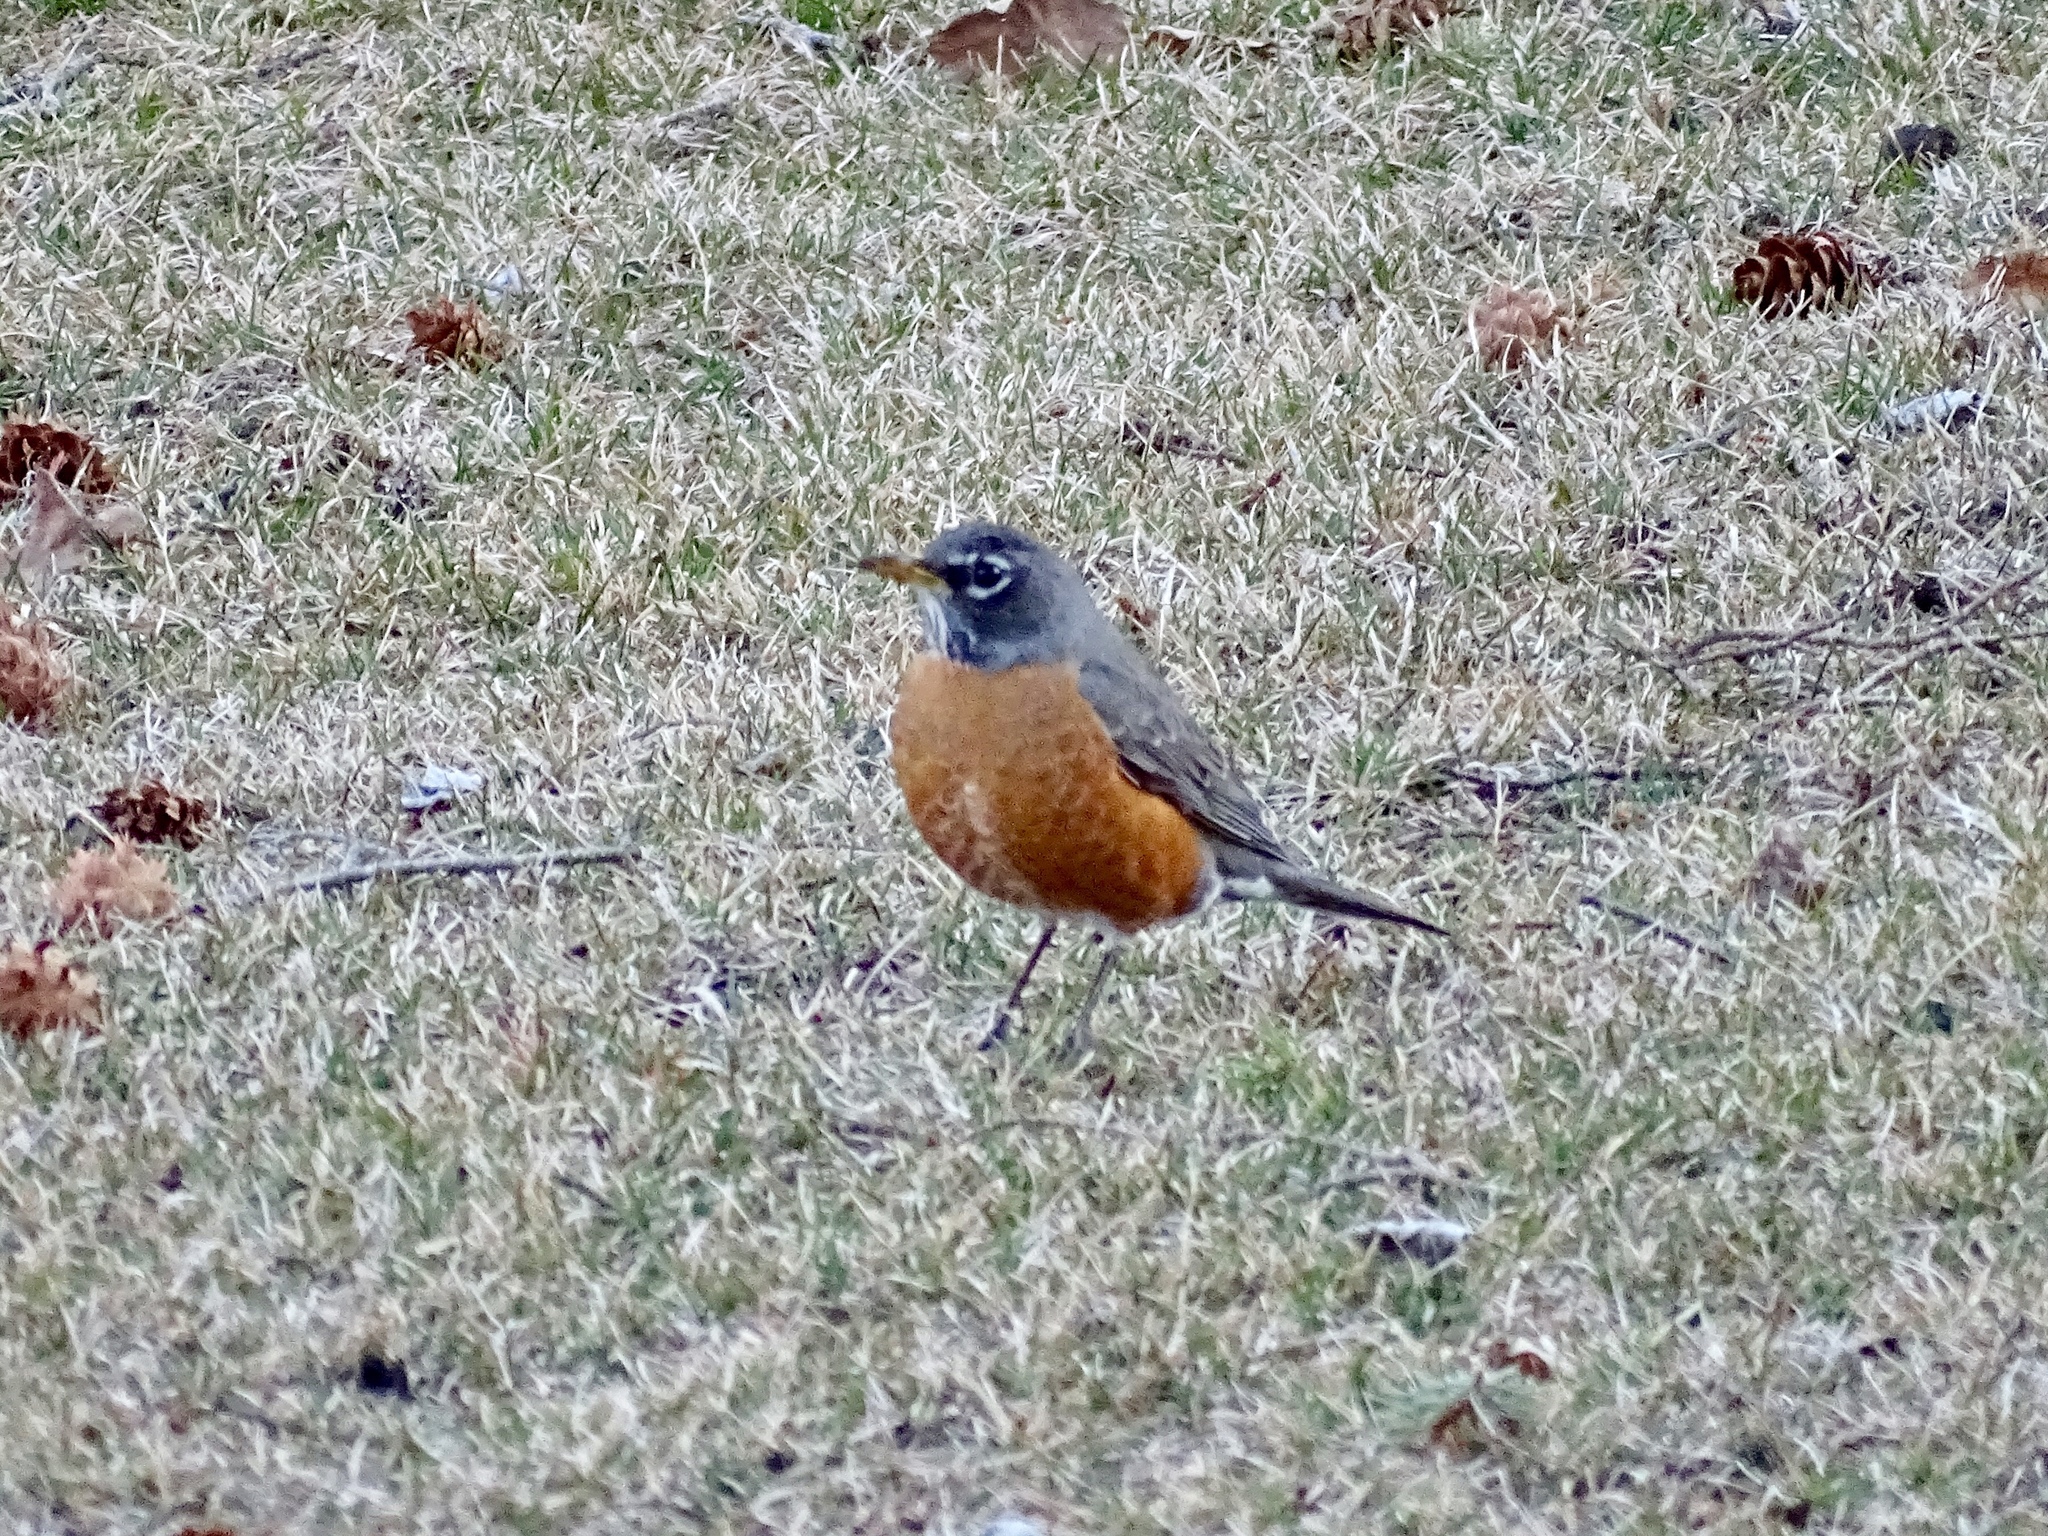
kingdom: Animalia
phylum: Chordata
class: Aves
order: Passeriformes
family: Turdidae
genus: Turdus
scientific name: Turdus migratorius
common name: American robin
